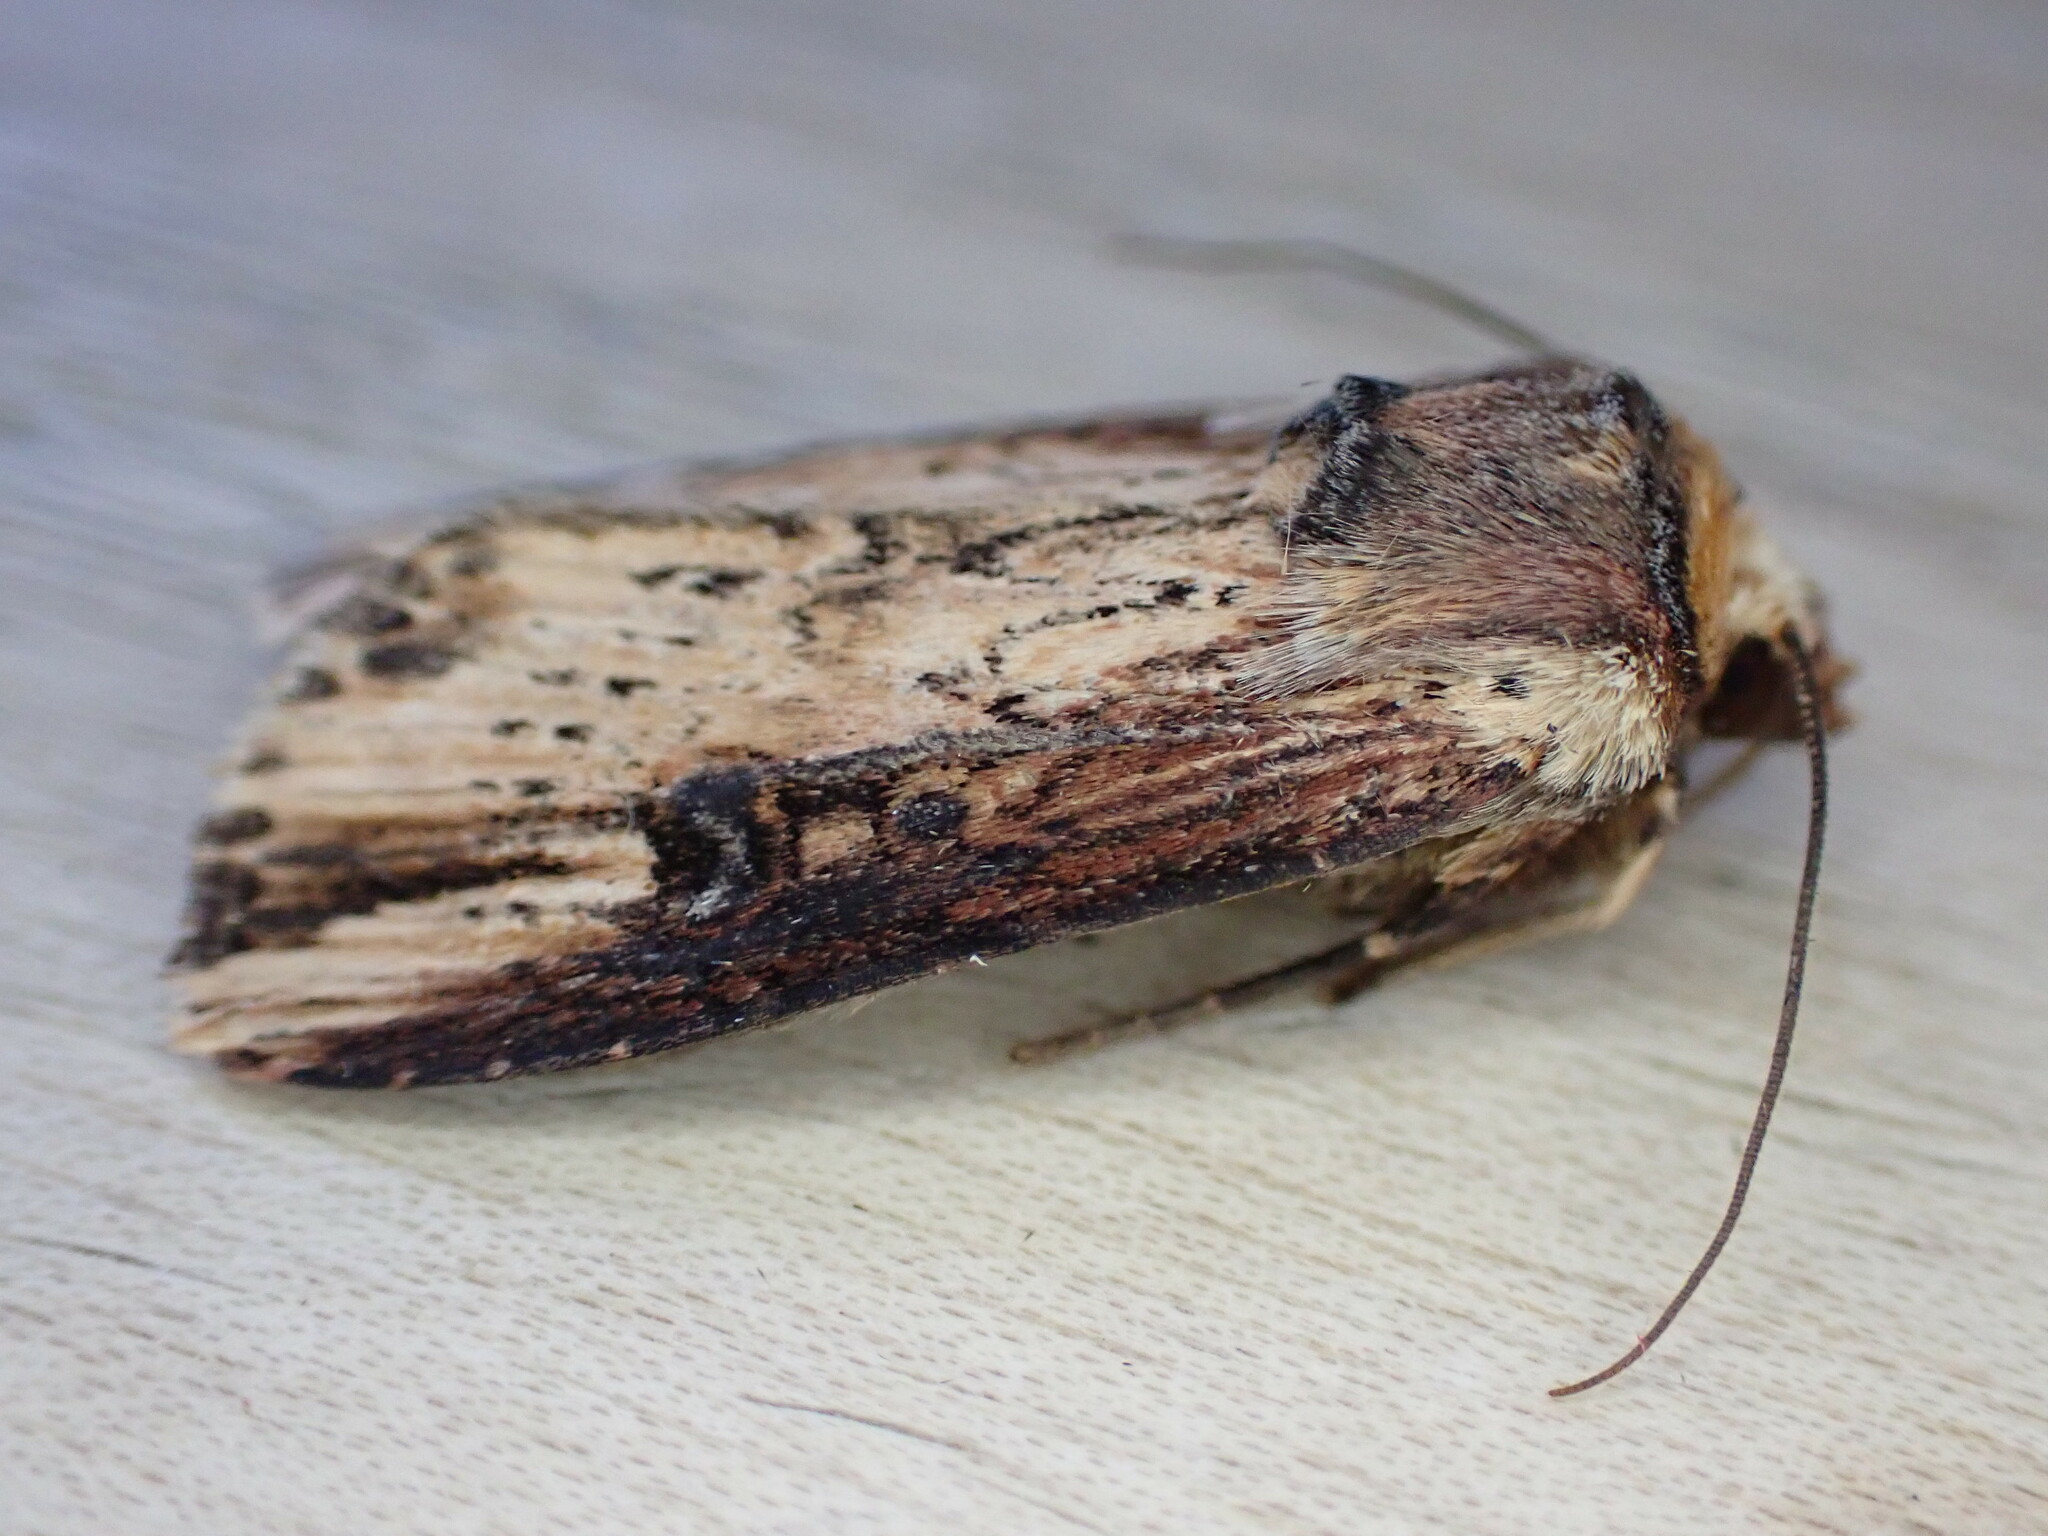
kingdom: Animalia
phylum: Arthropoda
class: Insecta
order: Lepidoptera
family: Noctuidae
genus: Axylia
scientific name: Axylia putris
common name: Flame
